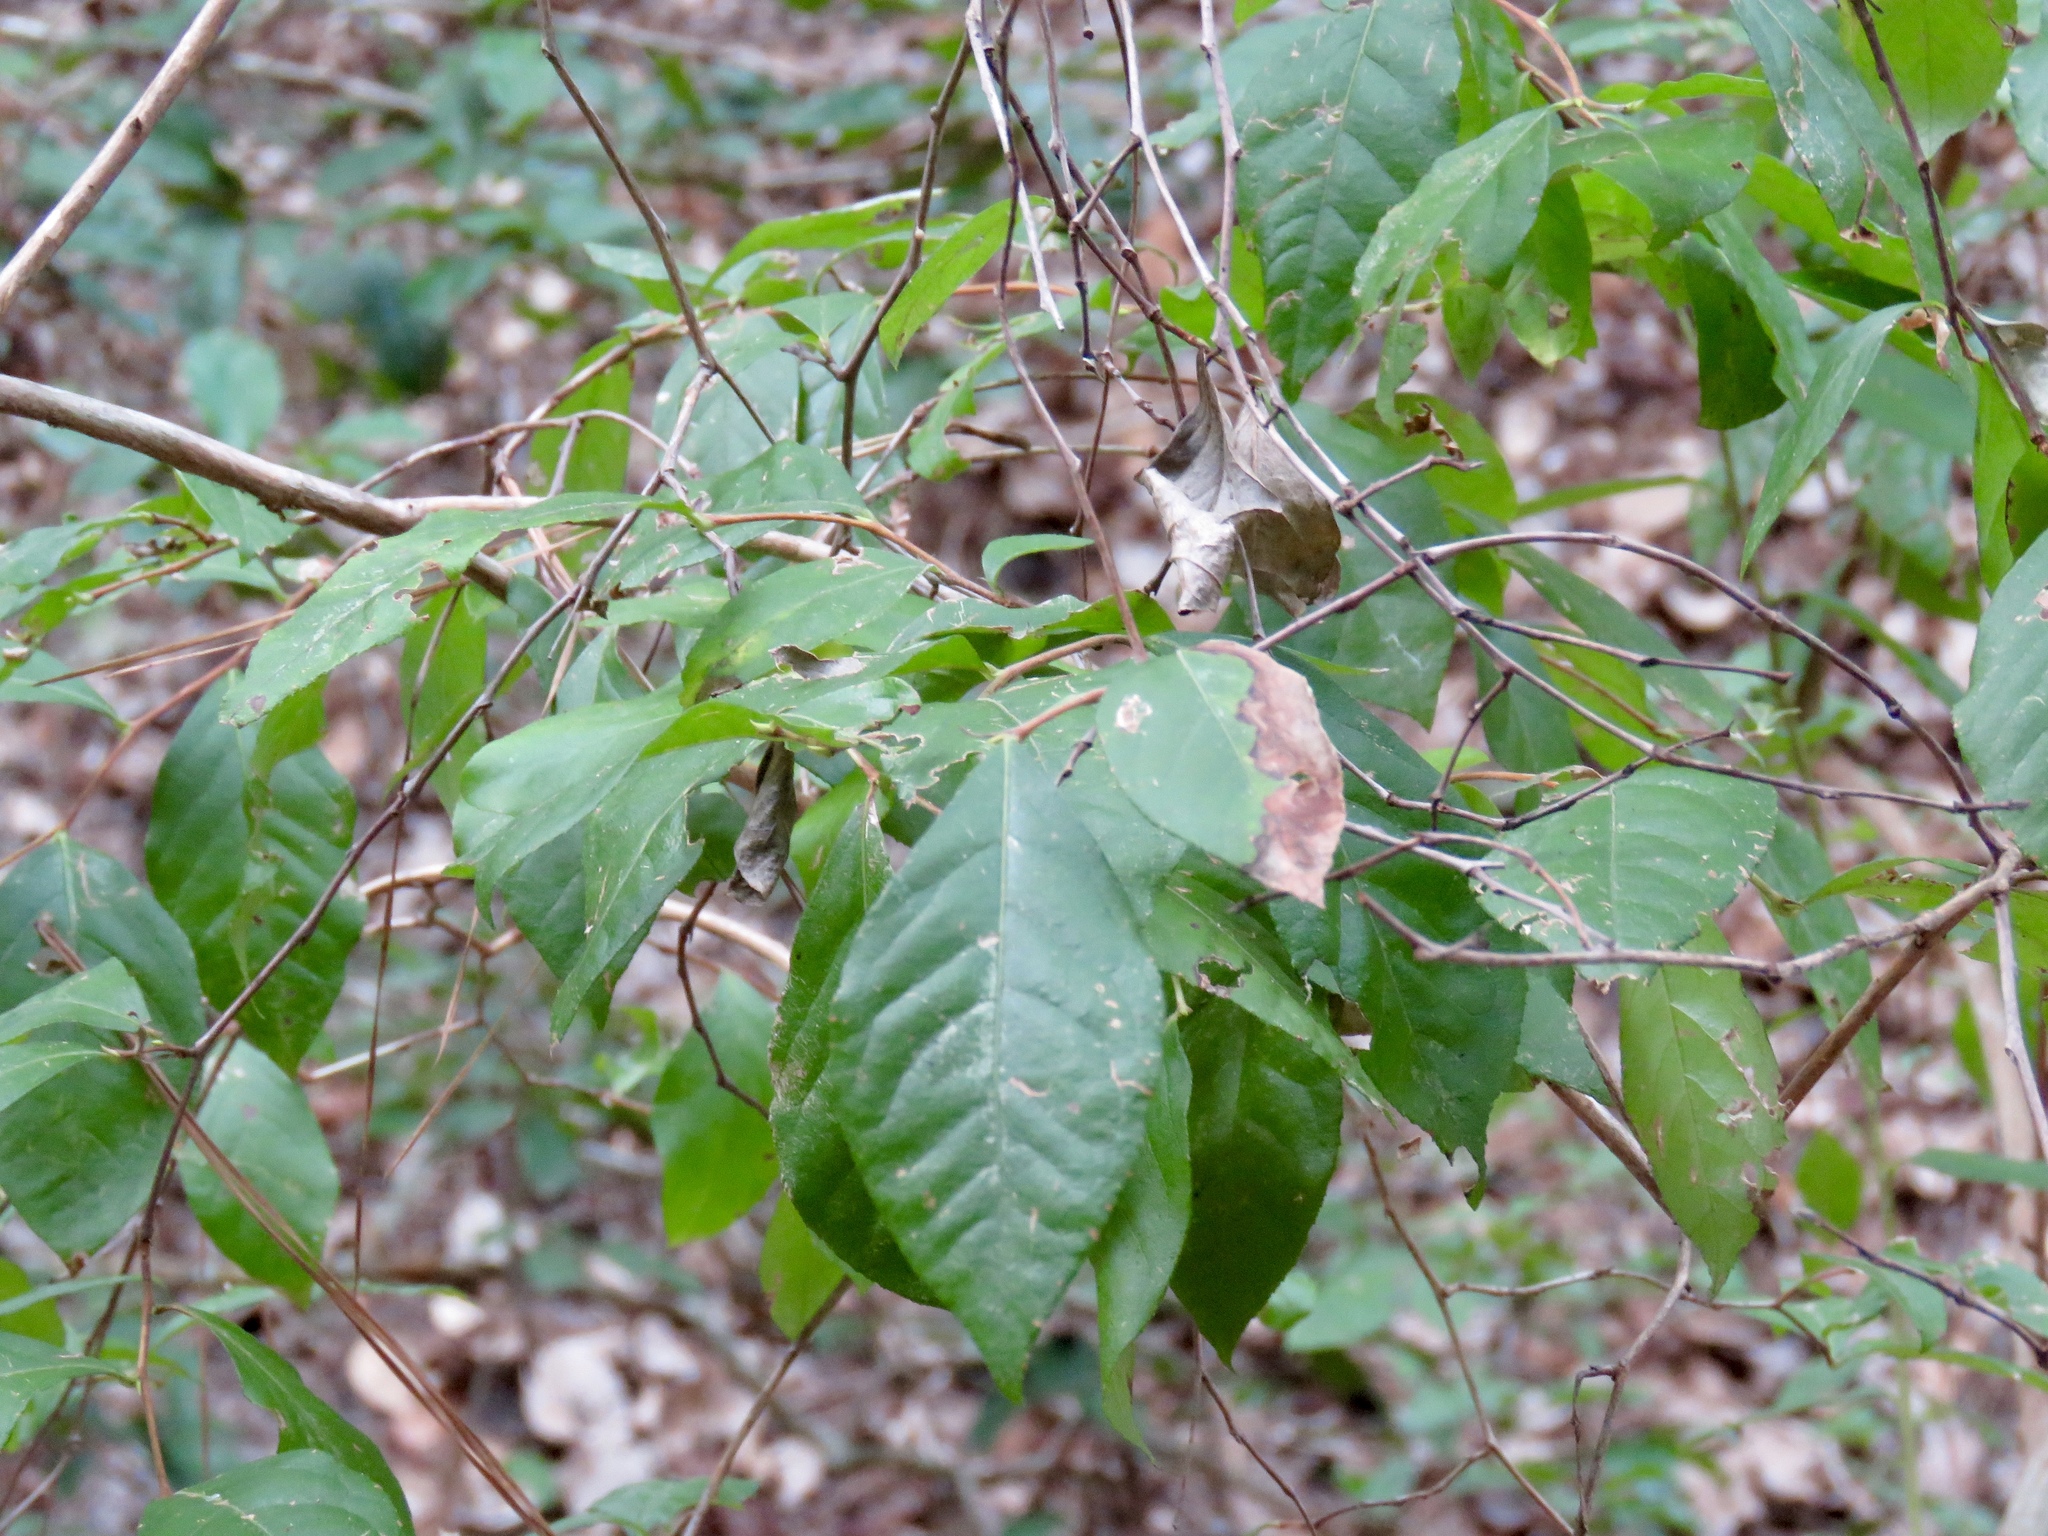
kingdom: Plantae
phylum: Tracheophyta
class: Magnoliopsida
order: Ericales
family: Ericaceae
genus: Lyonia
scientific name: Lyonia ligustrina
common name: Maleberry
